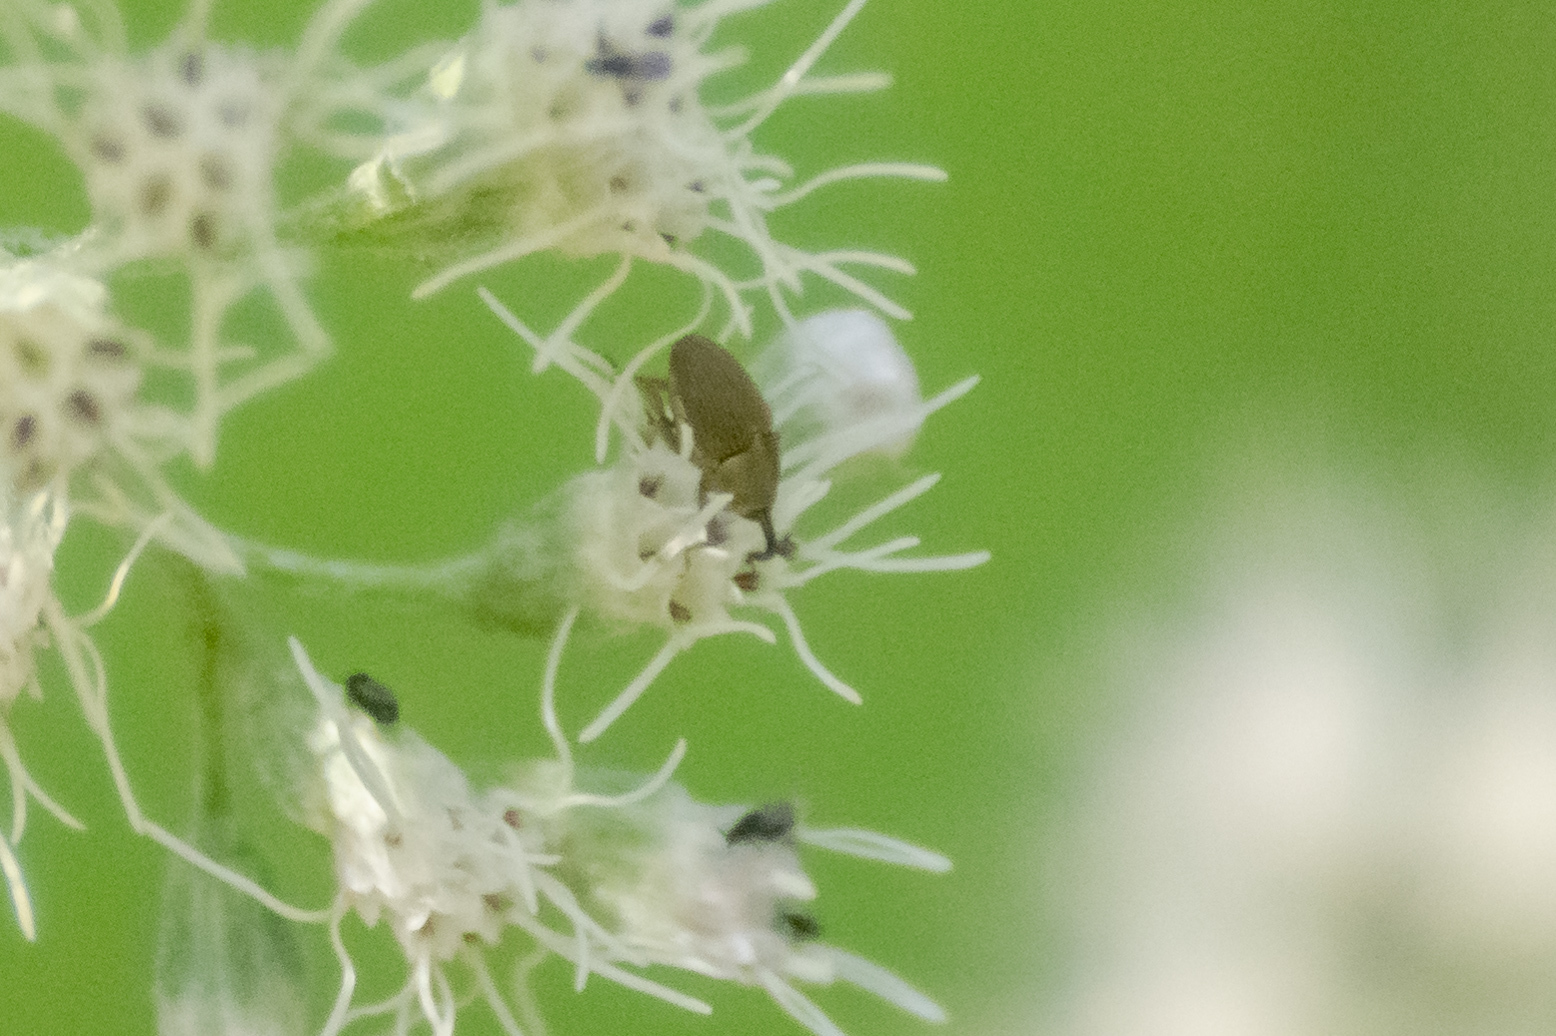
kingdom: Animalia
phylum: Arthropoda
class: Insecta
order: Coleoptera
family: Curculionidae
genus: Geraeus
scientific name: Geraeus picumnus
